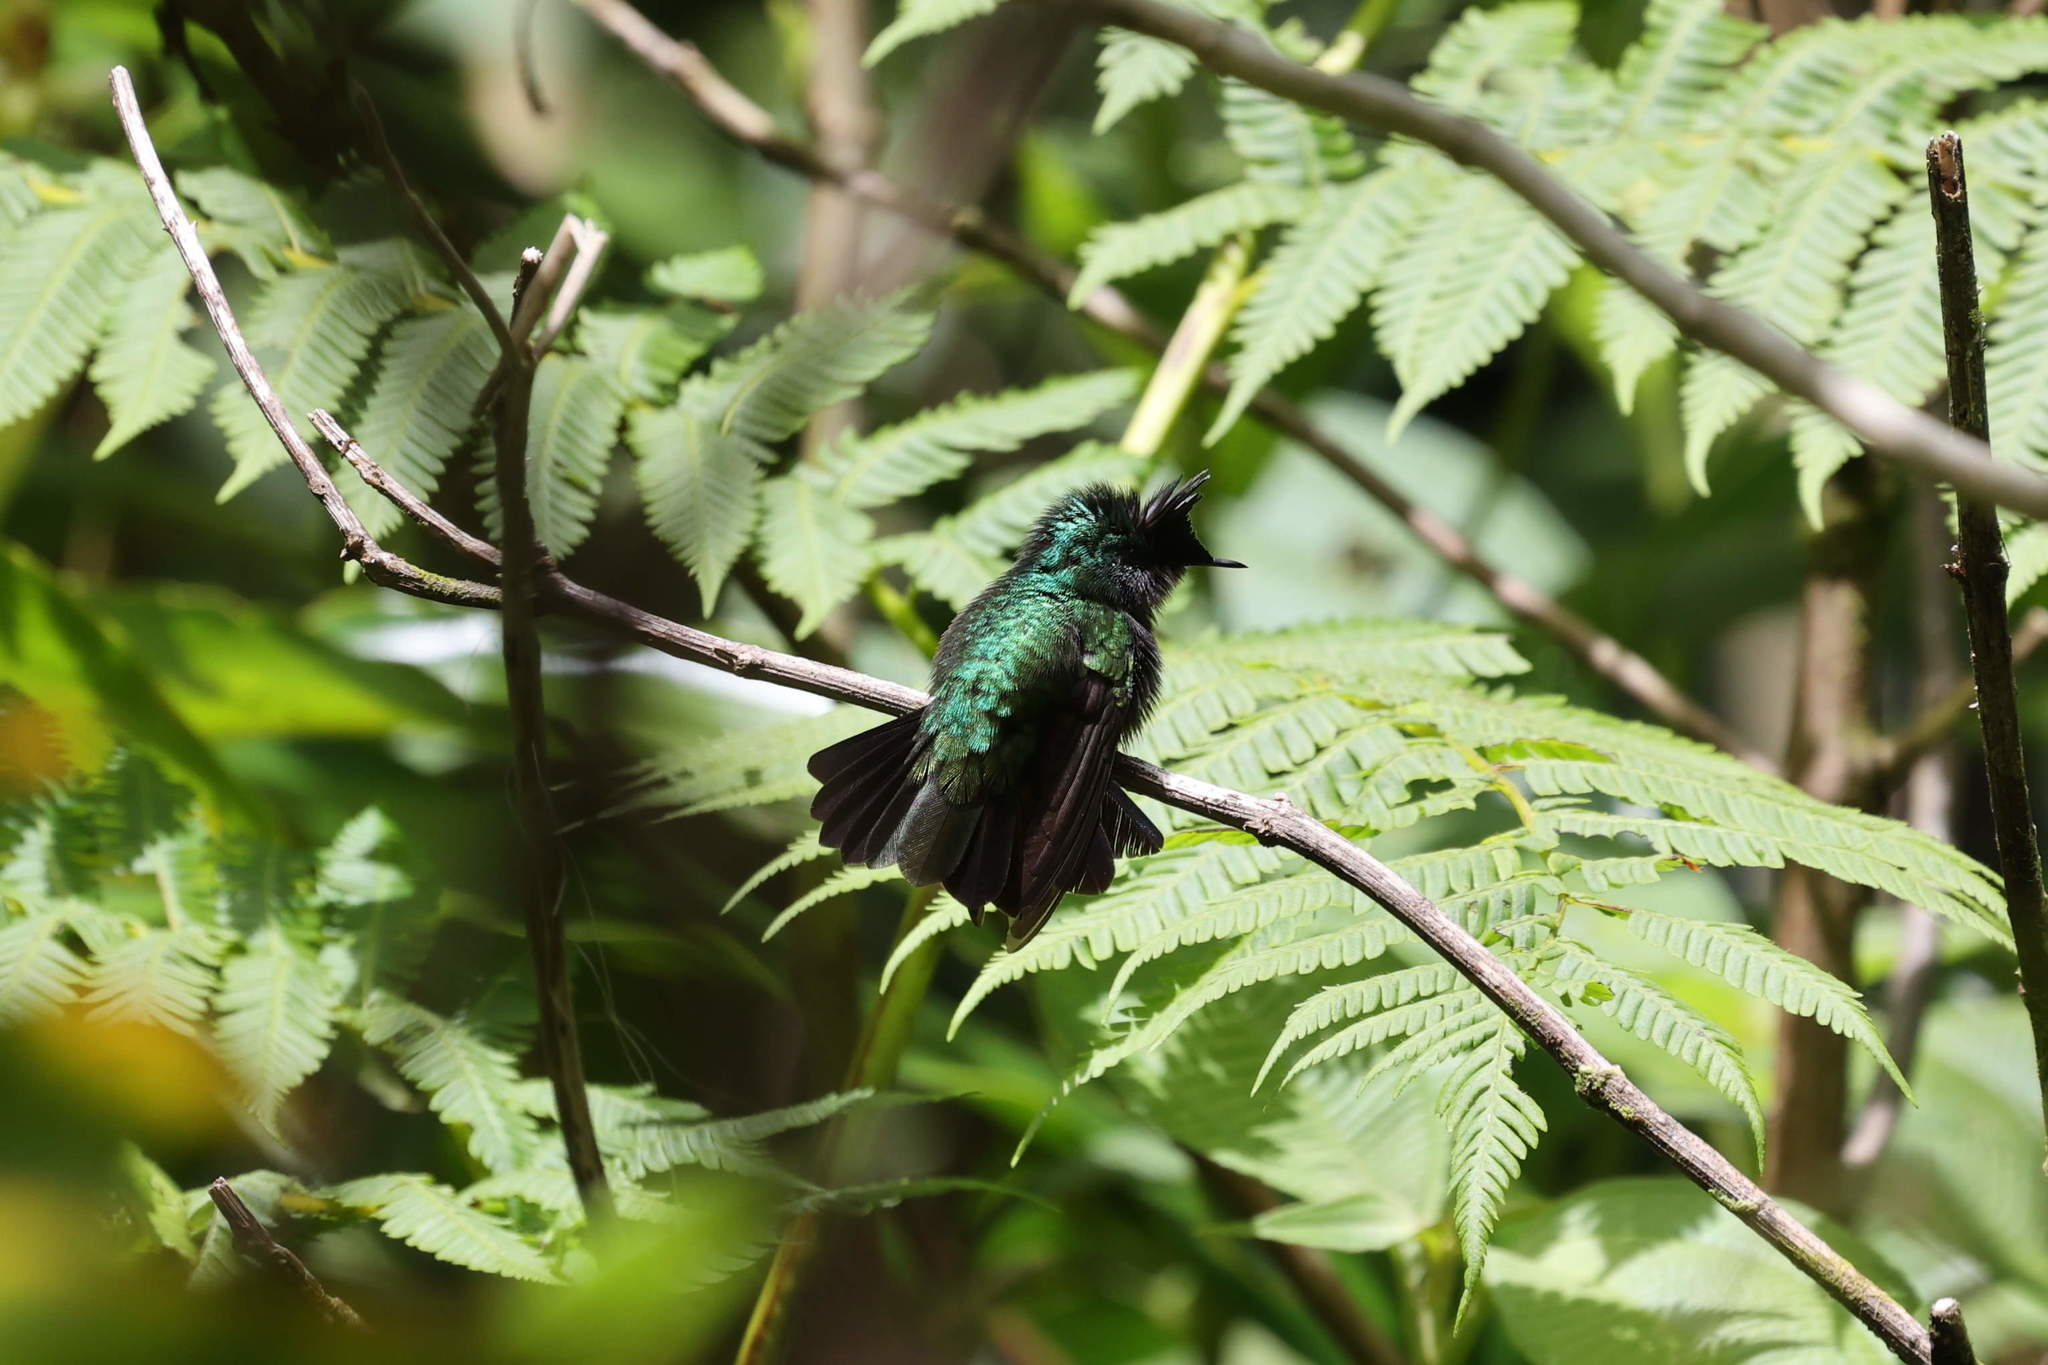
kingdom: Animalia
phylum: Chordata
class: Aves
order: Apodiformes
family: Trochilidae
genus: Orthorhyncus
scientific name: Orthorhyncus cristatus
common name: Antillean crested hummingbird
